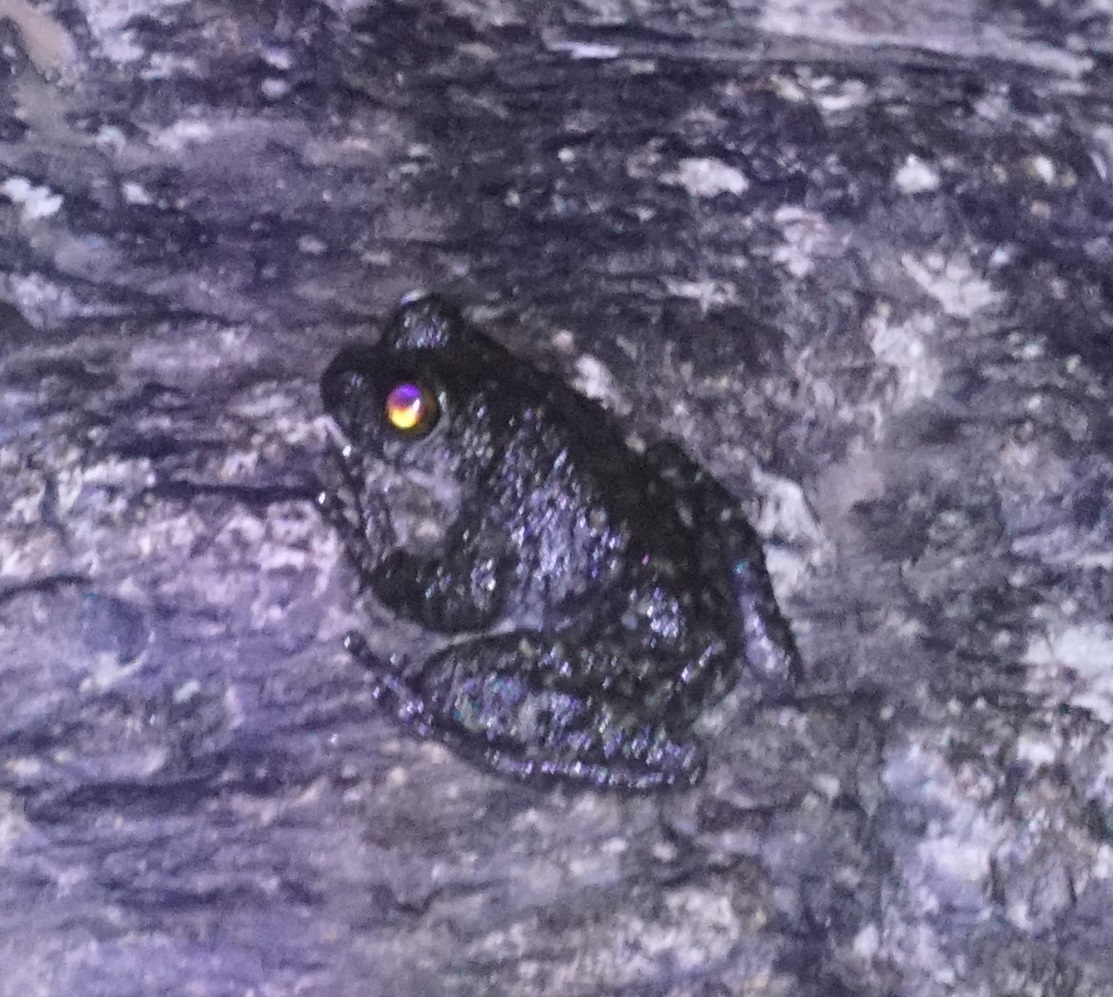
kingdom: Animalia
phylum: Chordata
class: Amphibia
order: Anura
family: Pelodryadidae
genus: Ranoidea
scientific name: Ranoidea nannotis
